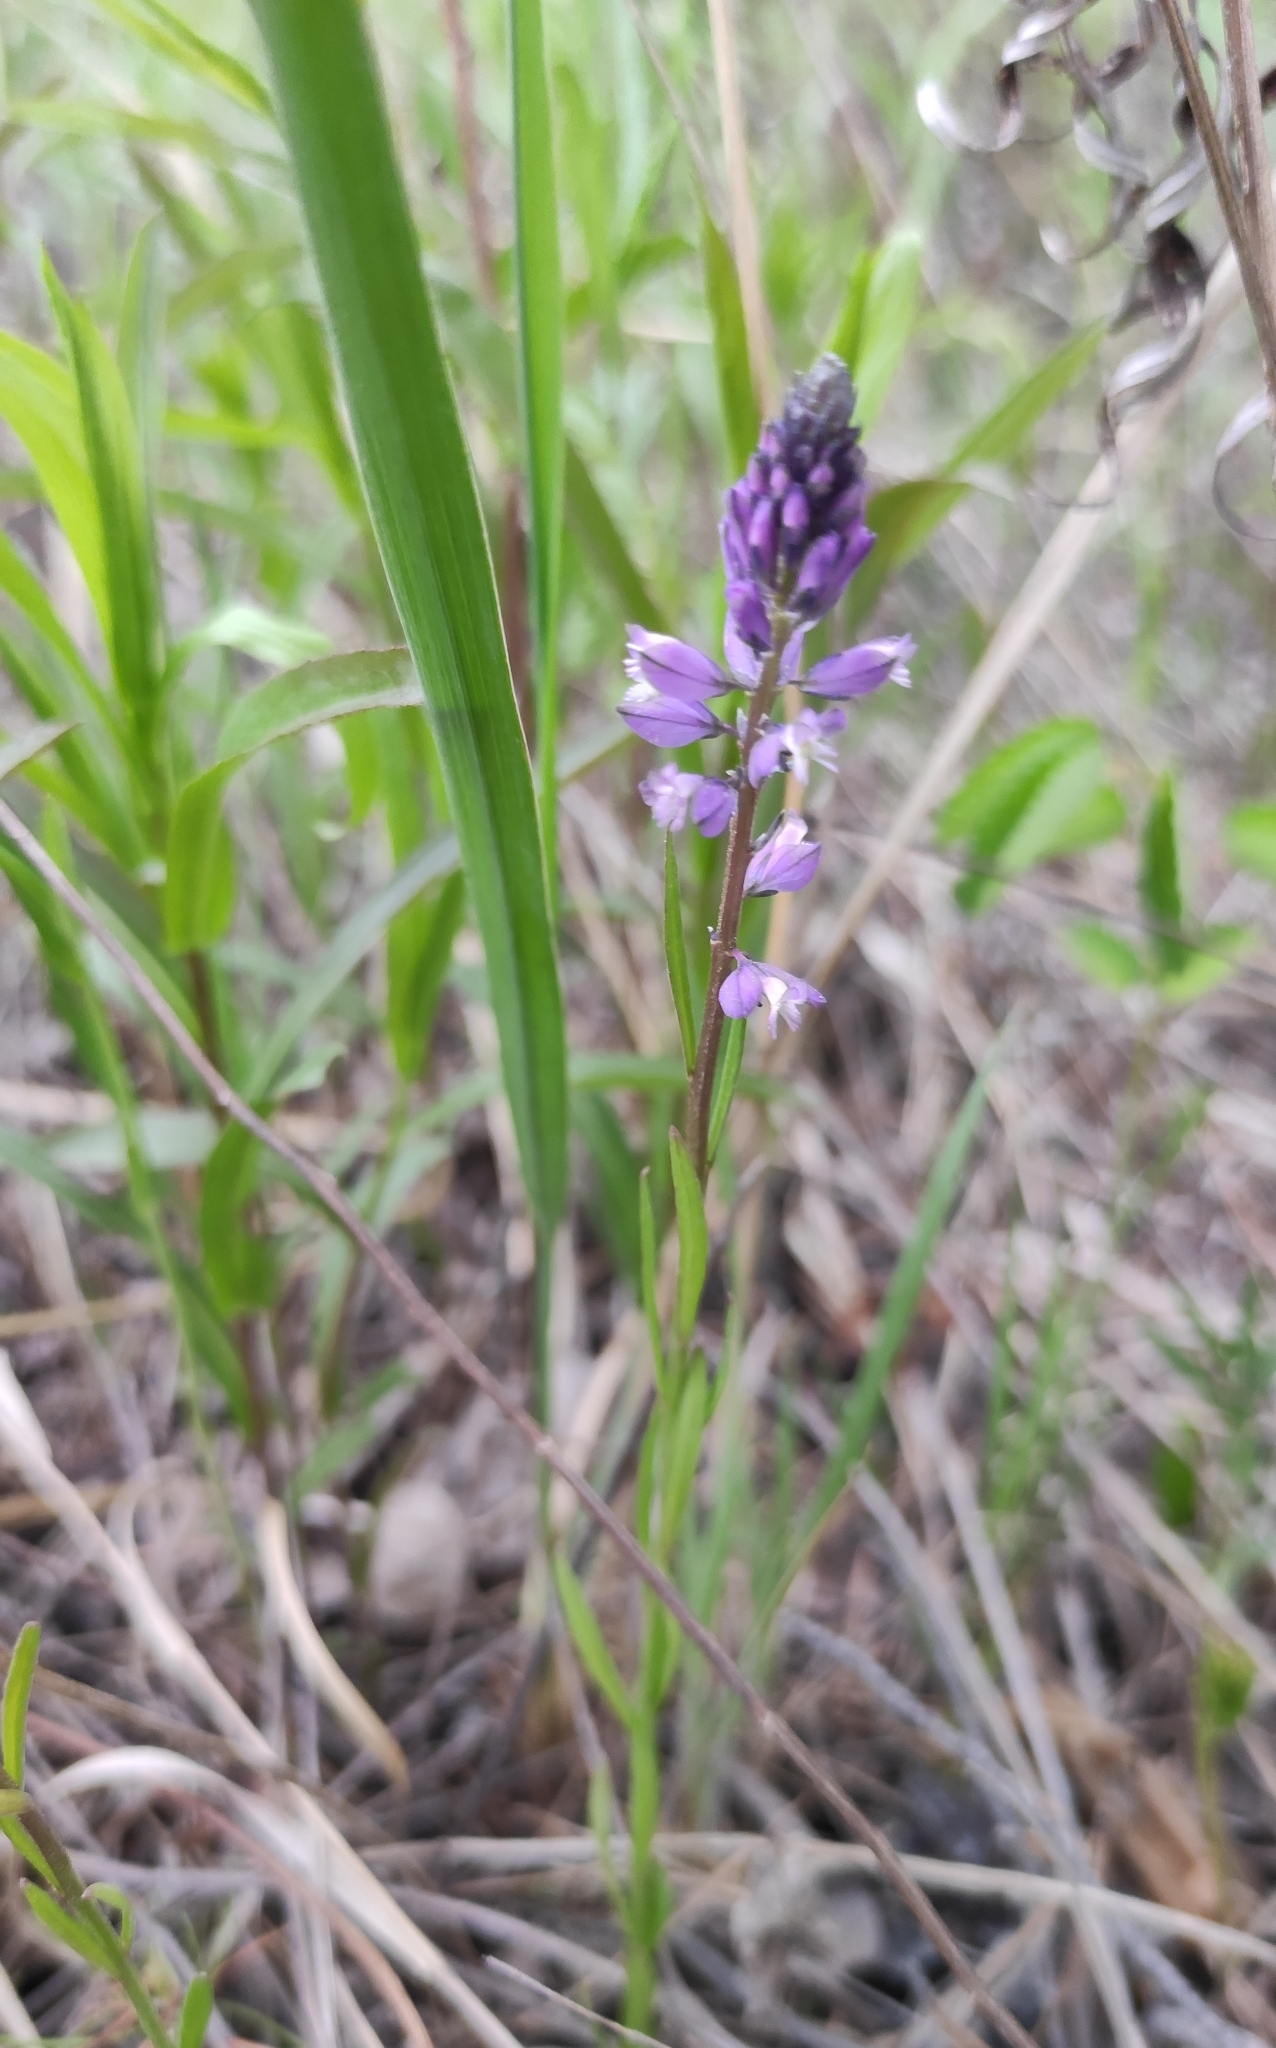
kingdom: Plantae
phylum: Tracheophyta
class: Magnoliopsida
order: Fabales
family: Polygalaceae
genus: Polygala
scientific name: Polygala comosa
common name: Tufted milkwort
